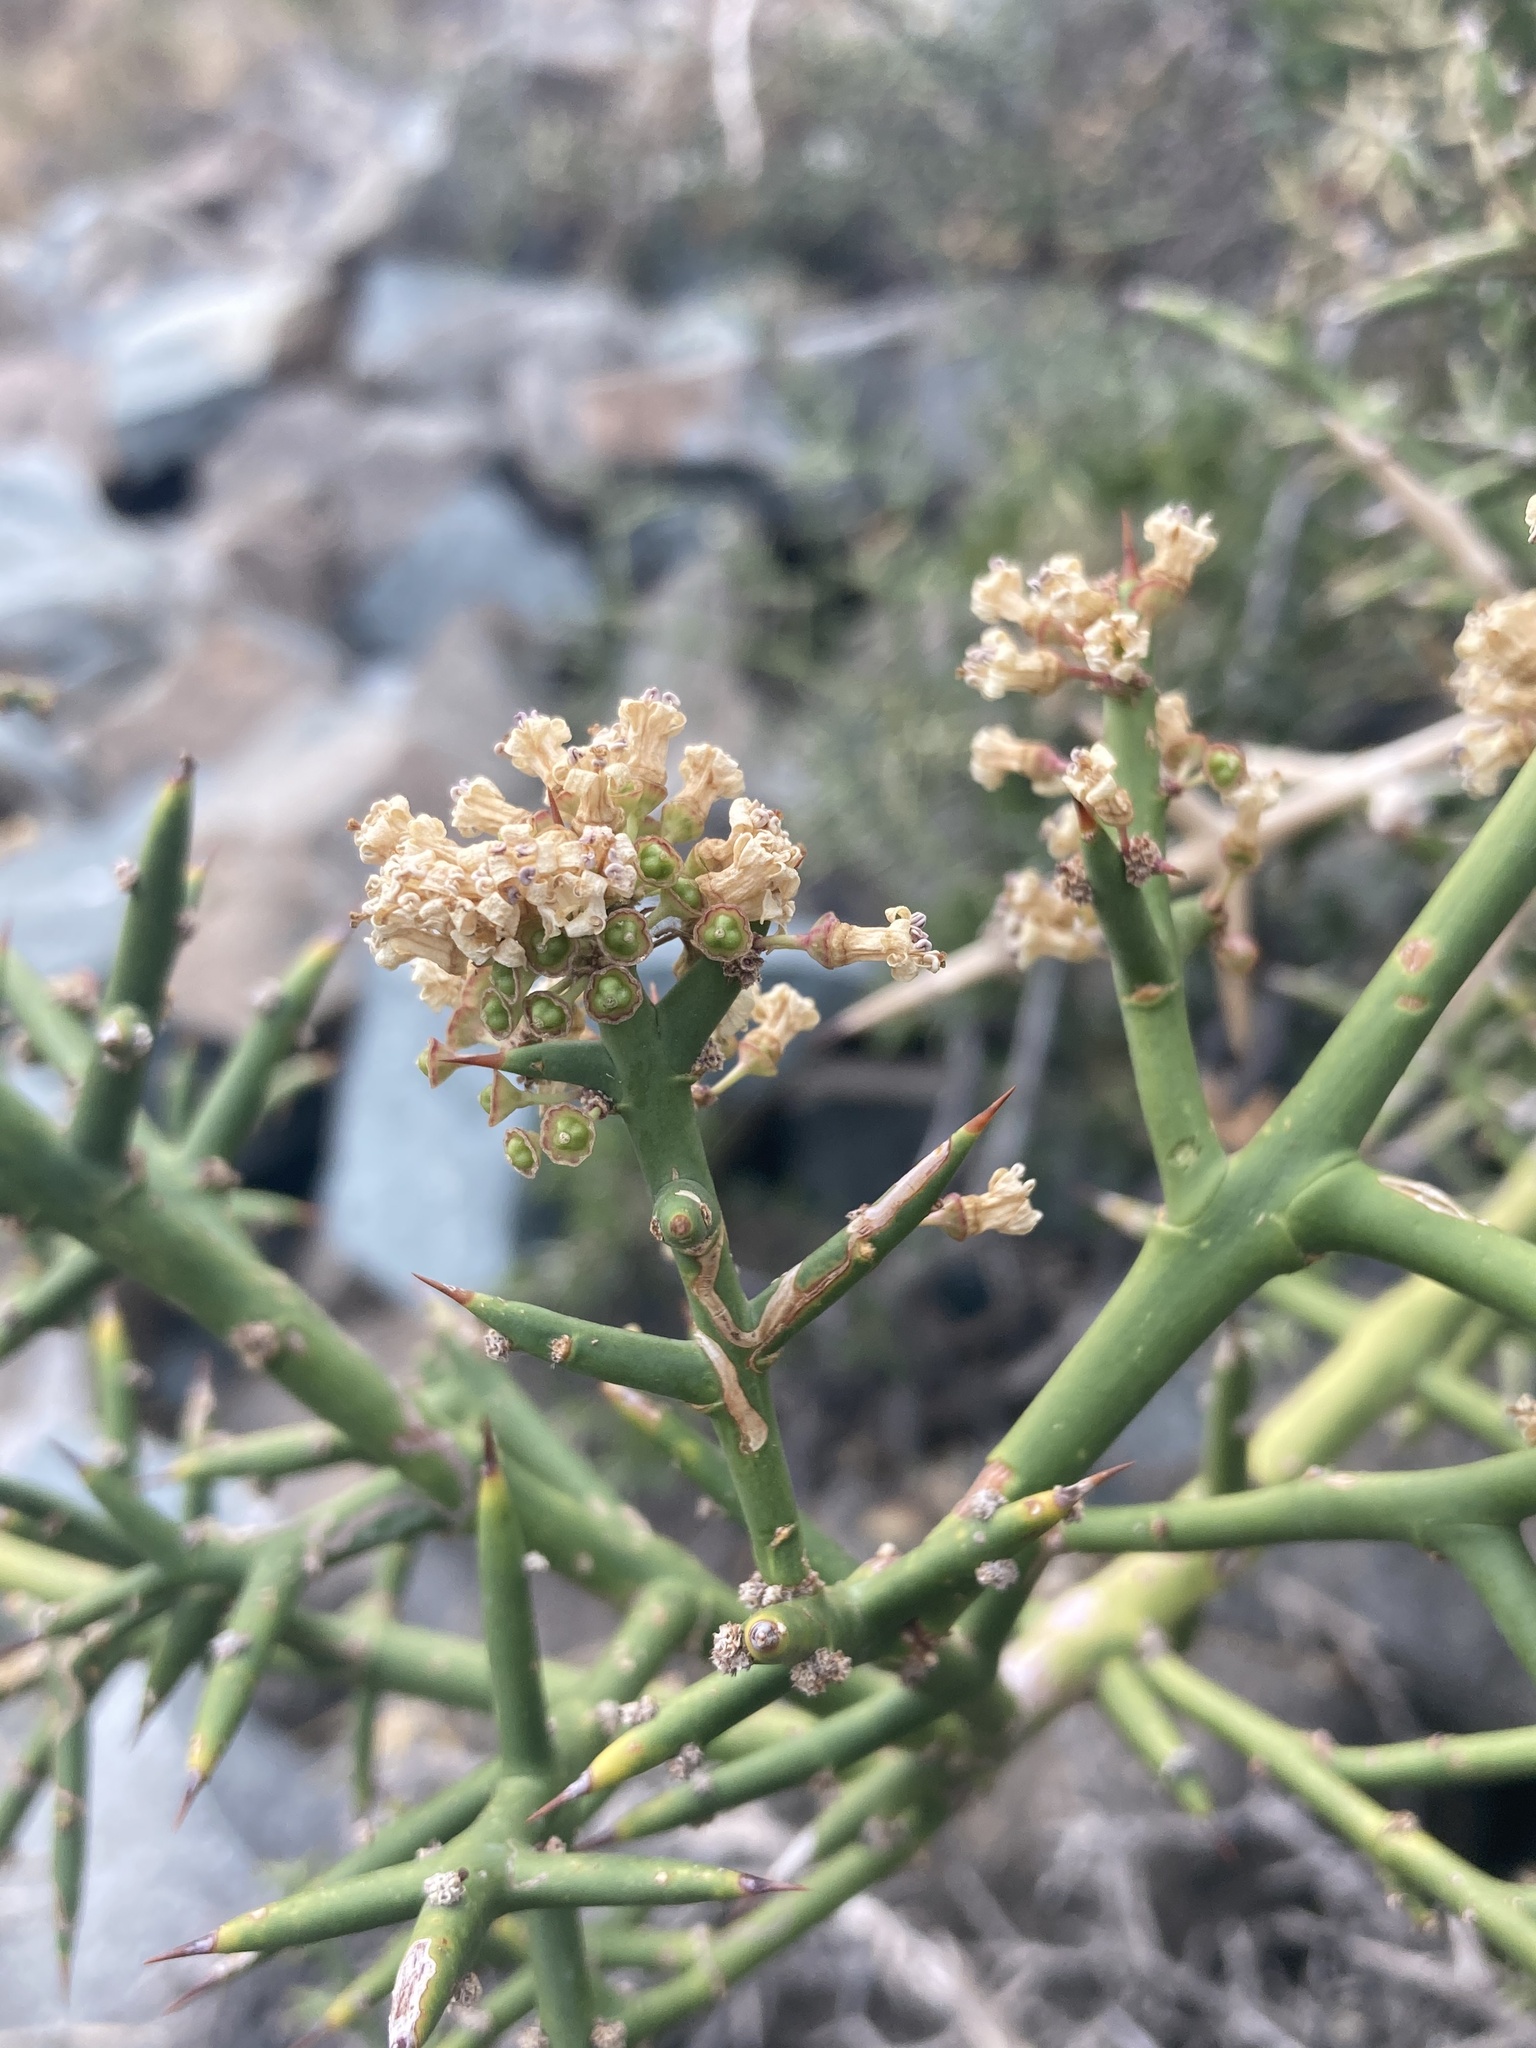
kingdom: Plantae
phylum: Tracheophyta
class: Magnoliopsida
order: Rosales
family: Rhamnaceae
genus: Colletia
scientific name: Colletia hystrix
